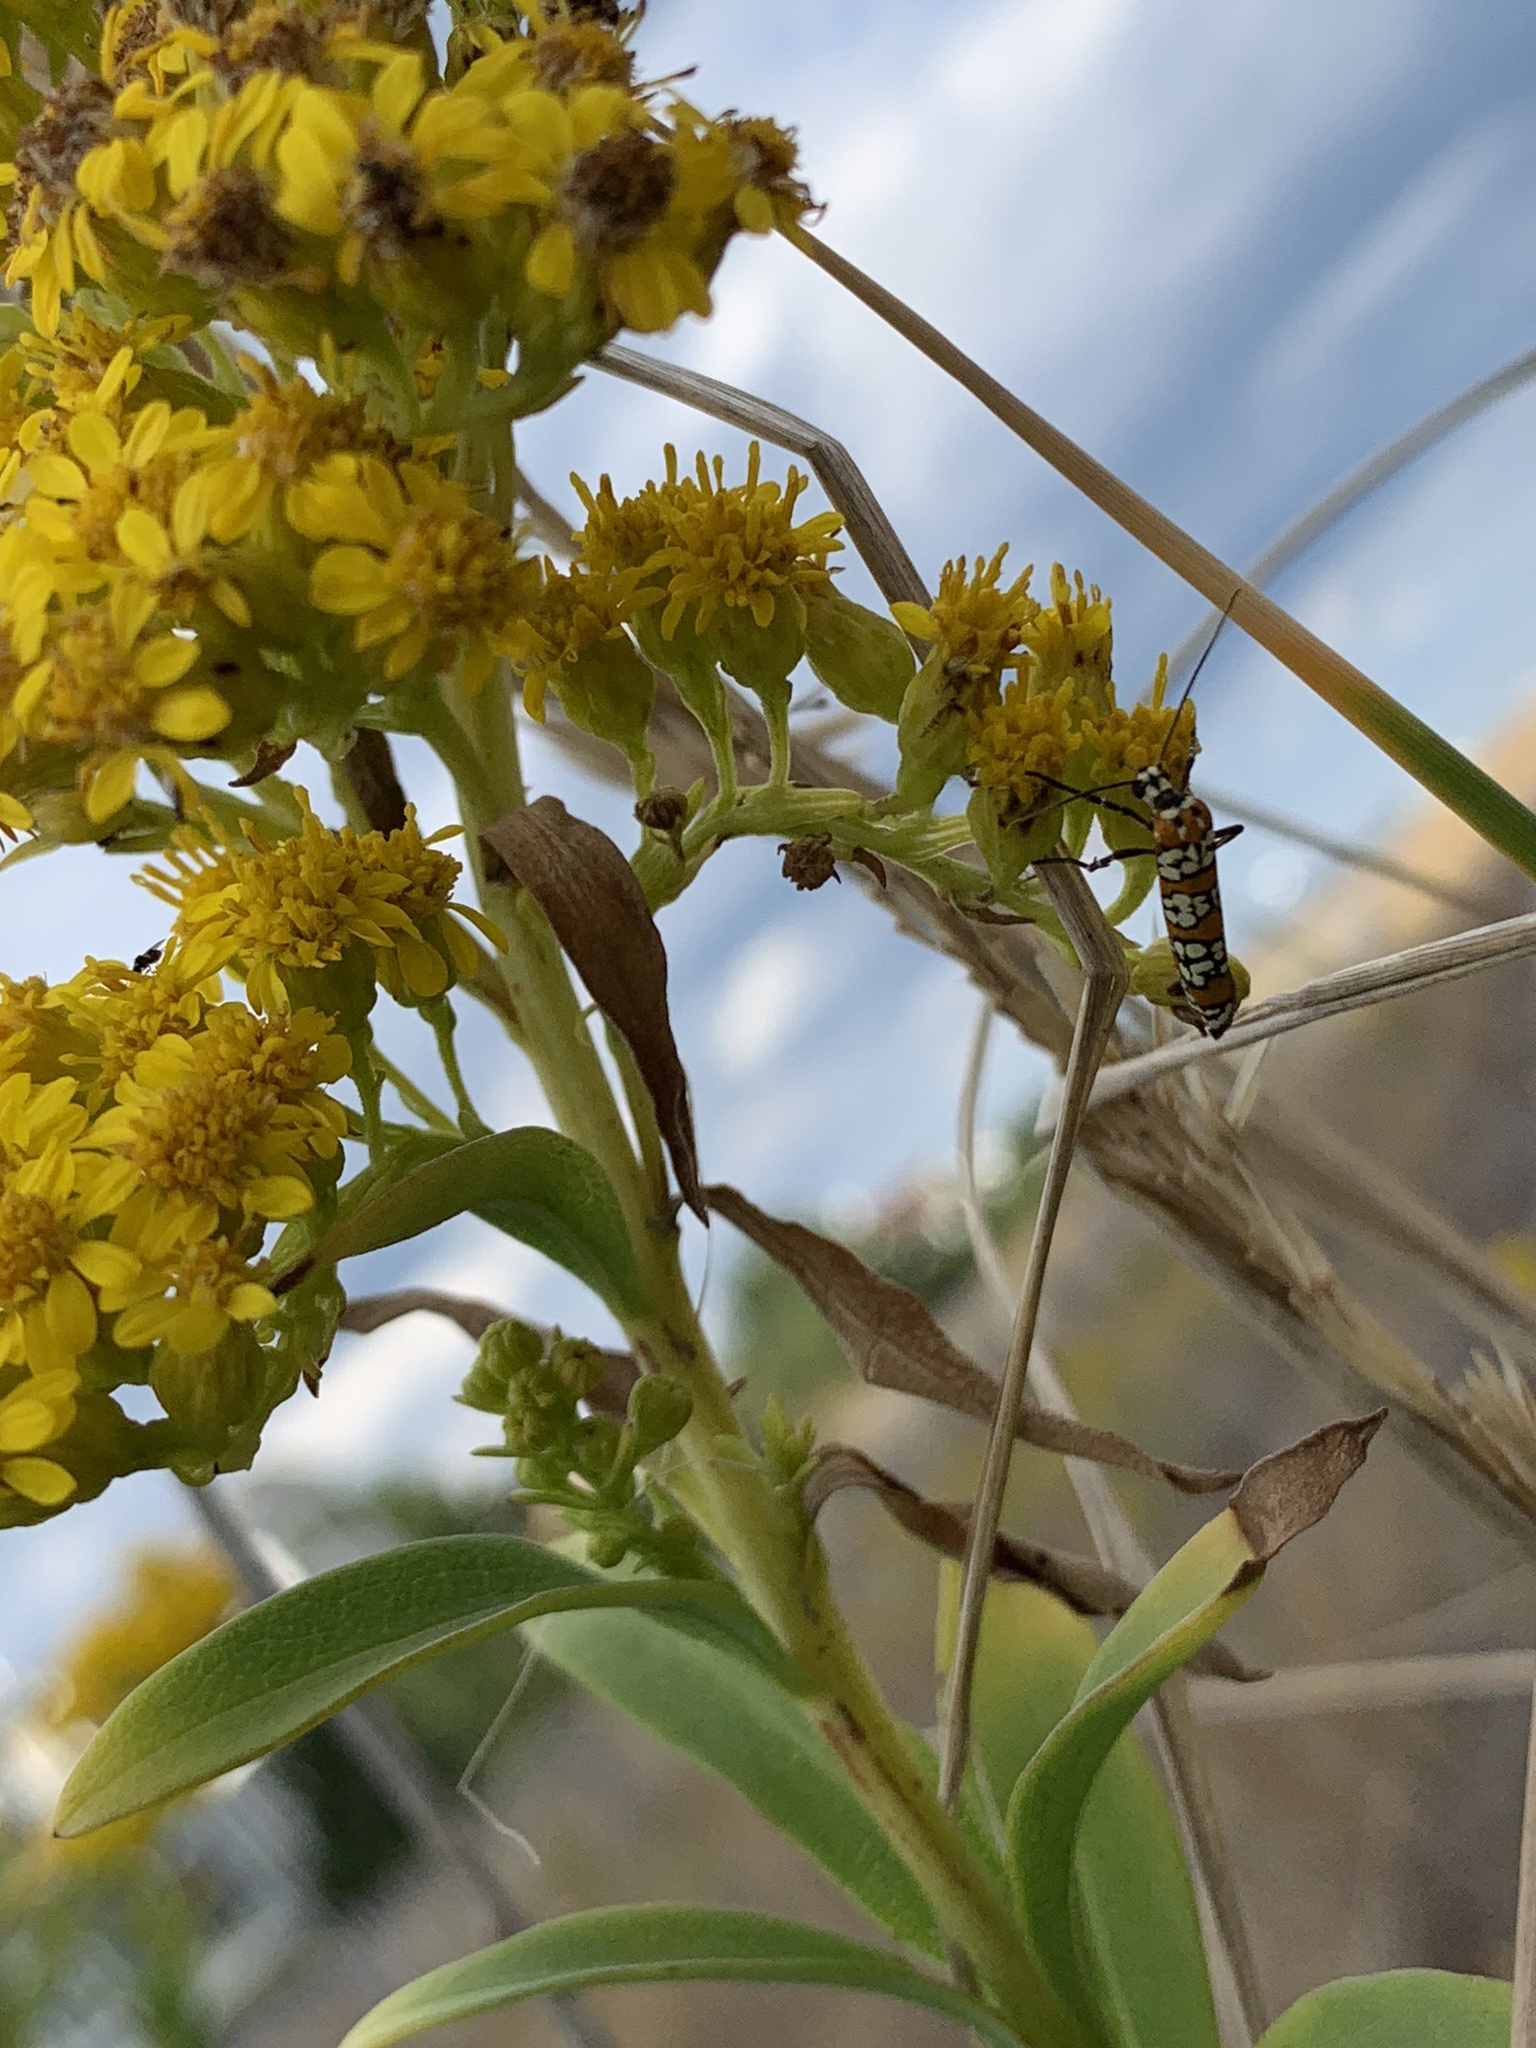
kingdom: Animalia
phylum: Arthropoda
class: Insecta
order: Lepidoptera
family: Attevidae
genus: Atteva
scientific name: Atteva punctella
